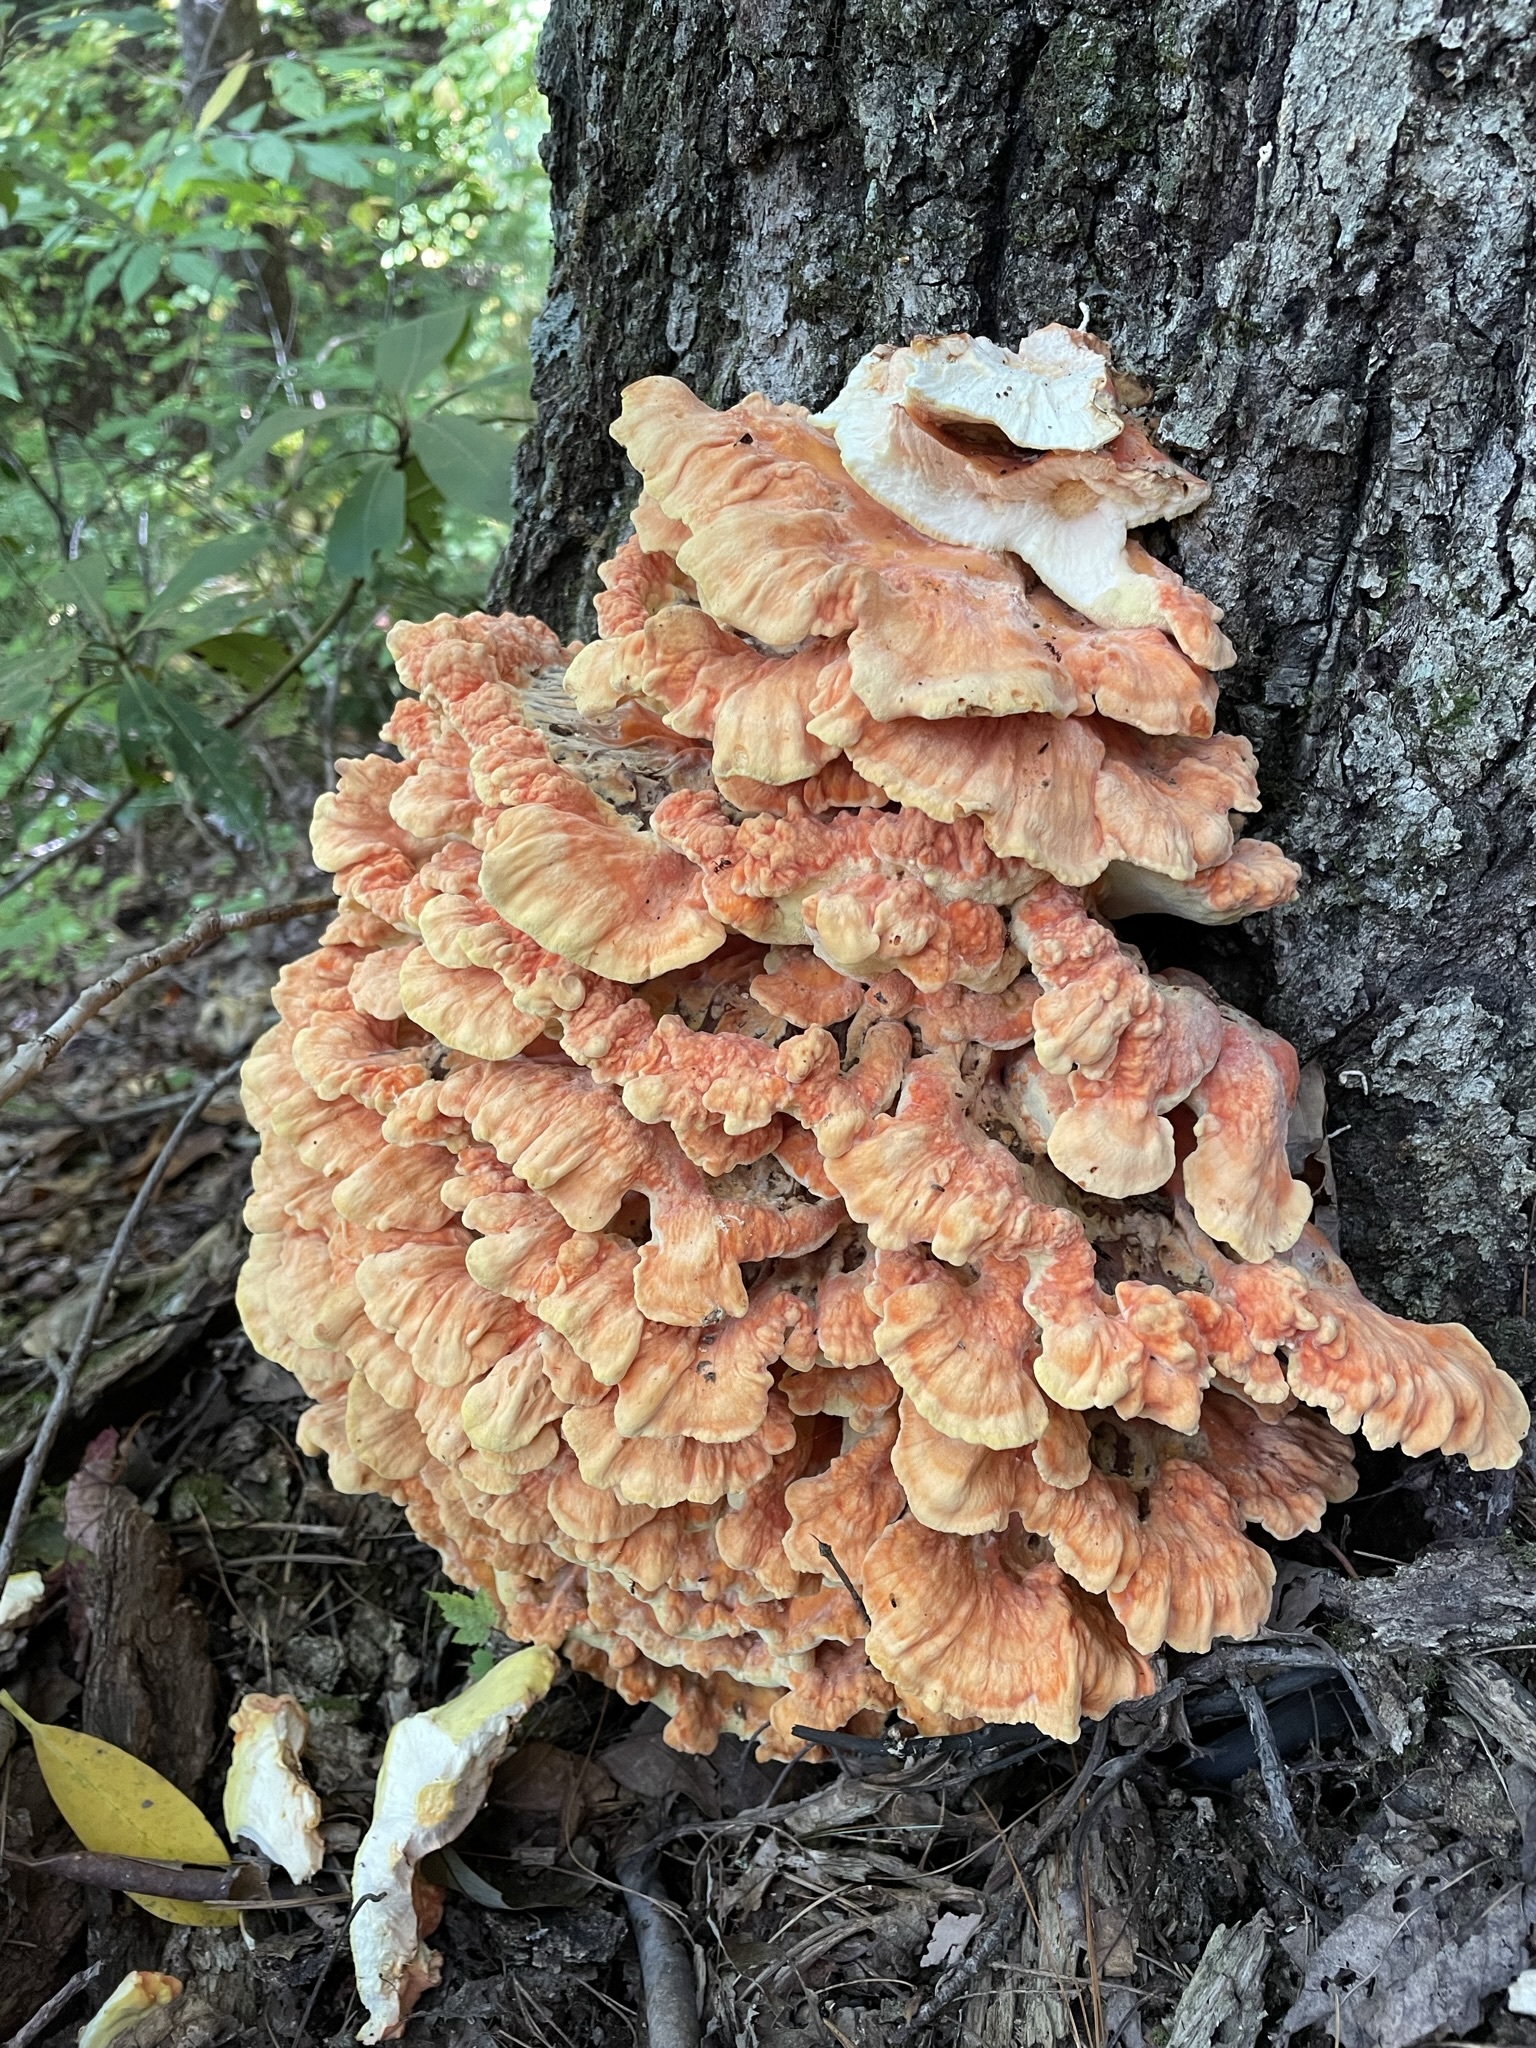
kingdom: Fungi
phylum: Basidiomycota
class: Agaricomycetes
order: Polyporales
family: Laetiporaceae
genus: Laetiporus
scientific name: Laetiporus sulphureus
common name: Chicken of the woods
